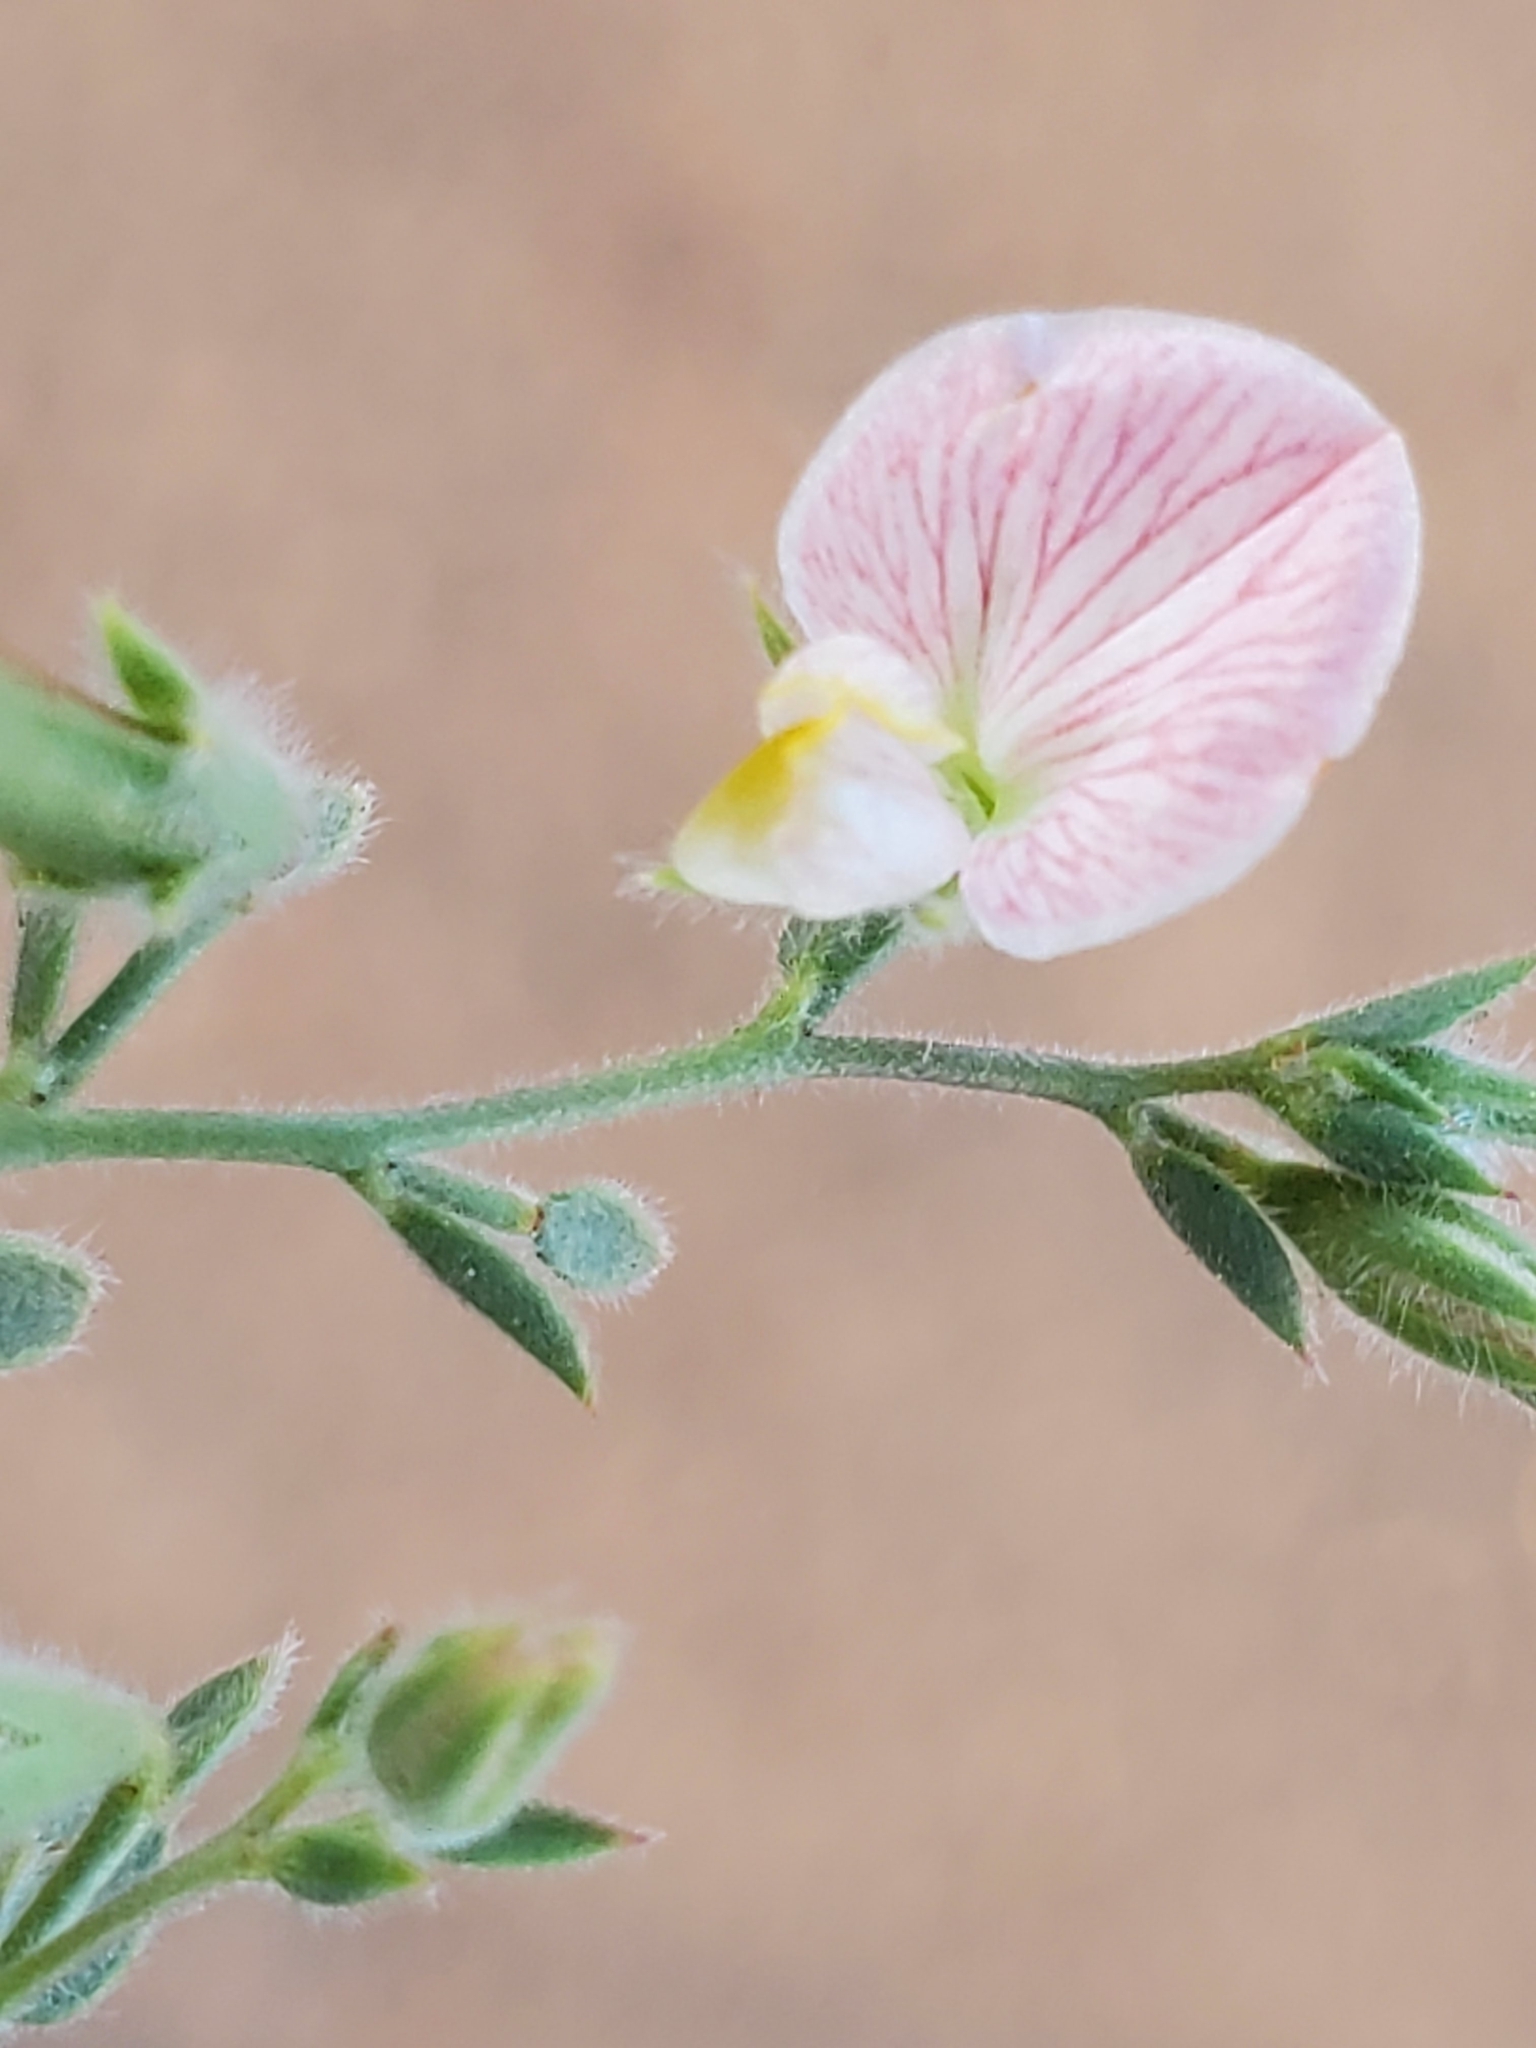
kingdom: Plantae
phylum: Tracheophyta
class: Magnoliopsida
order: Fabales
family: Fabaceae
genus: Acmispon
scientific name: Acmispon americanus
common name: American bird's-foot trefoil
